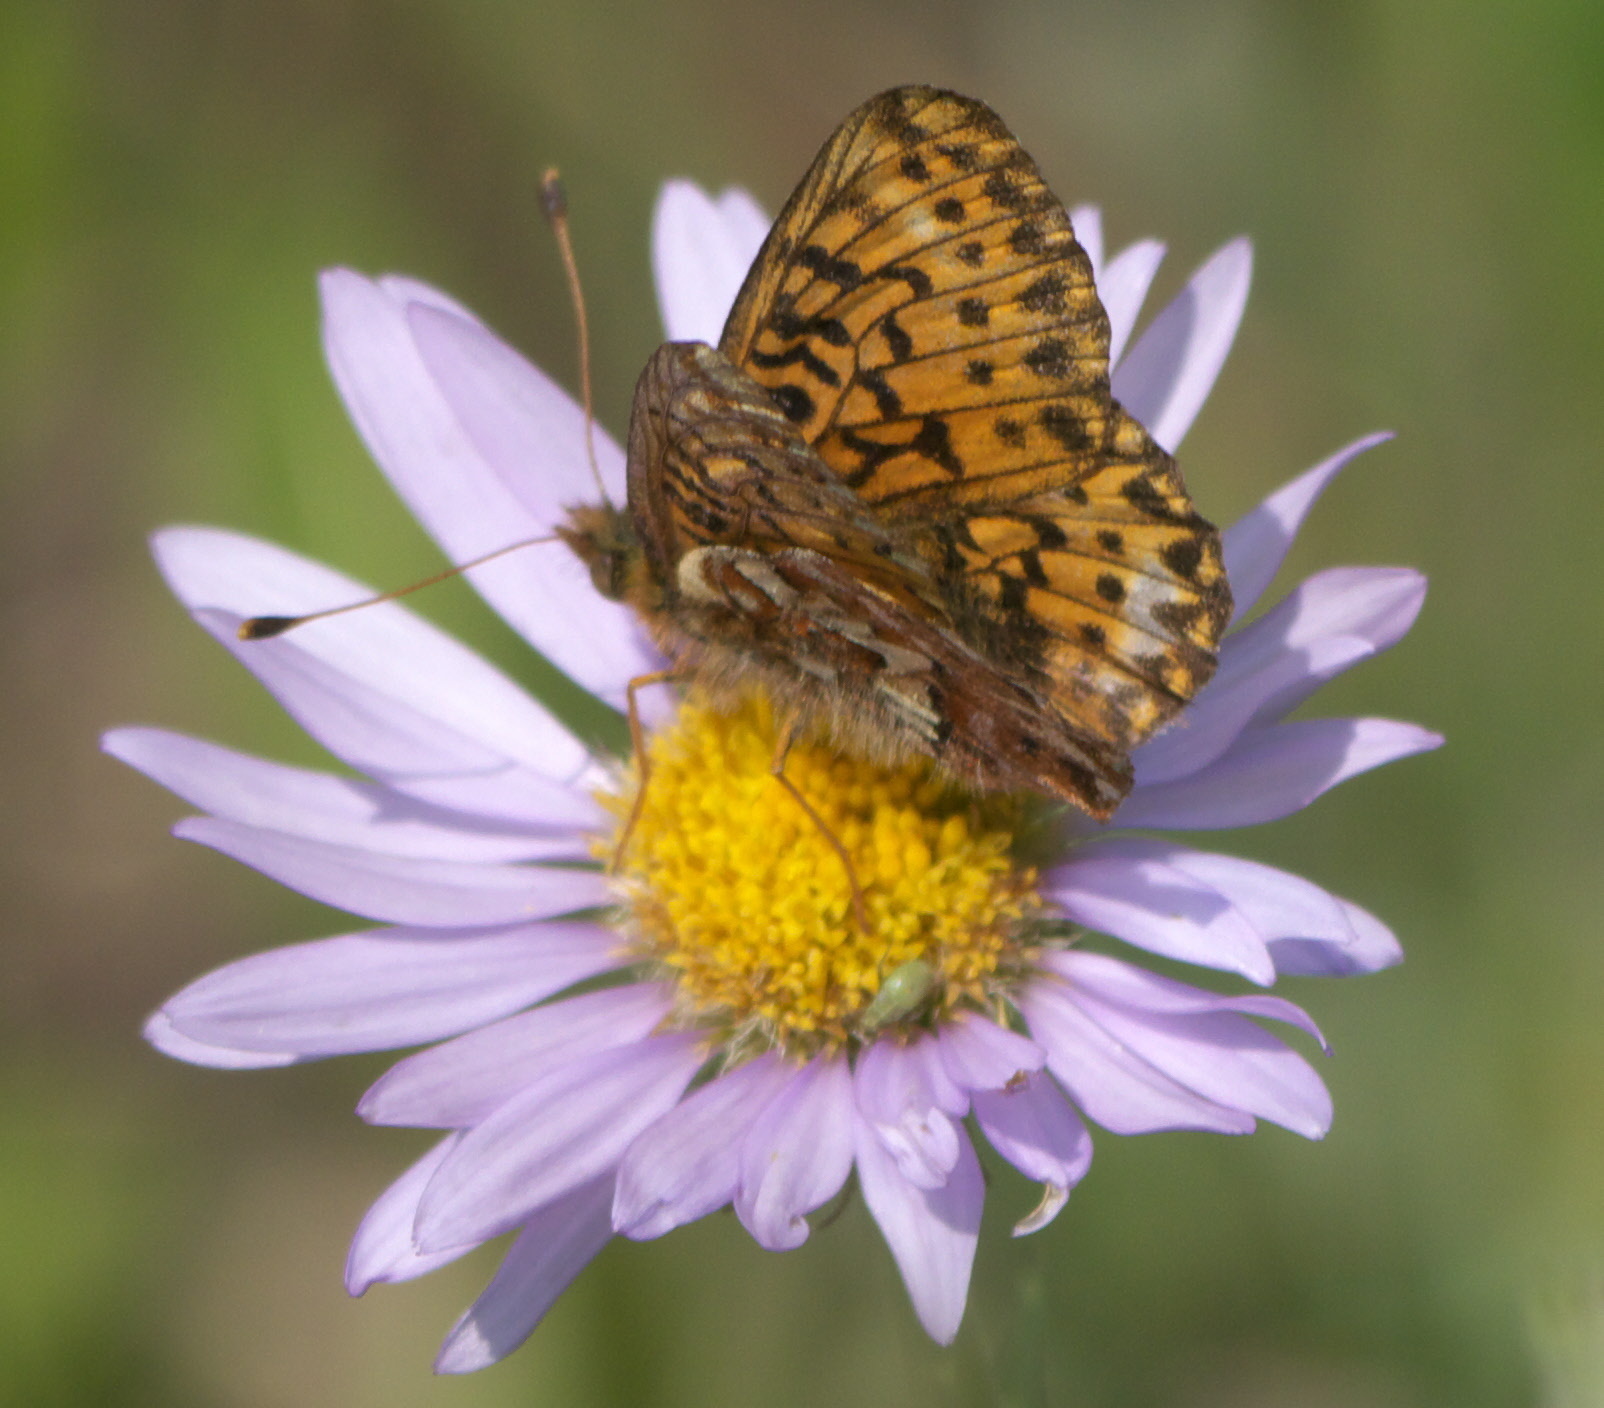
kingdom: Animalia
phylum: Arthropoda
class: Insecta
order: Lepidoptera
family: Nymphalidae
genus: Boloria
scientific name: Boloria chariclea
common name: Arctic fritillary
